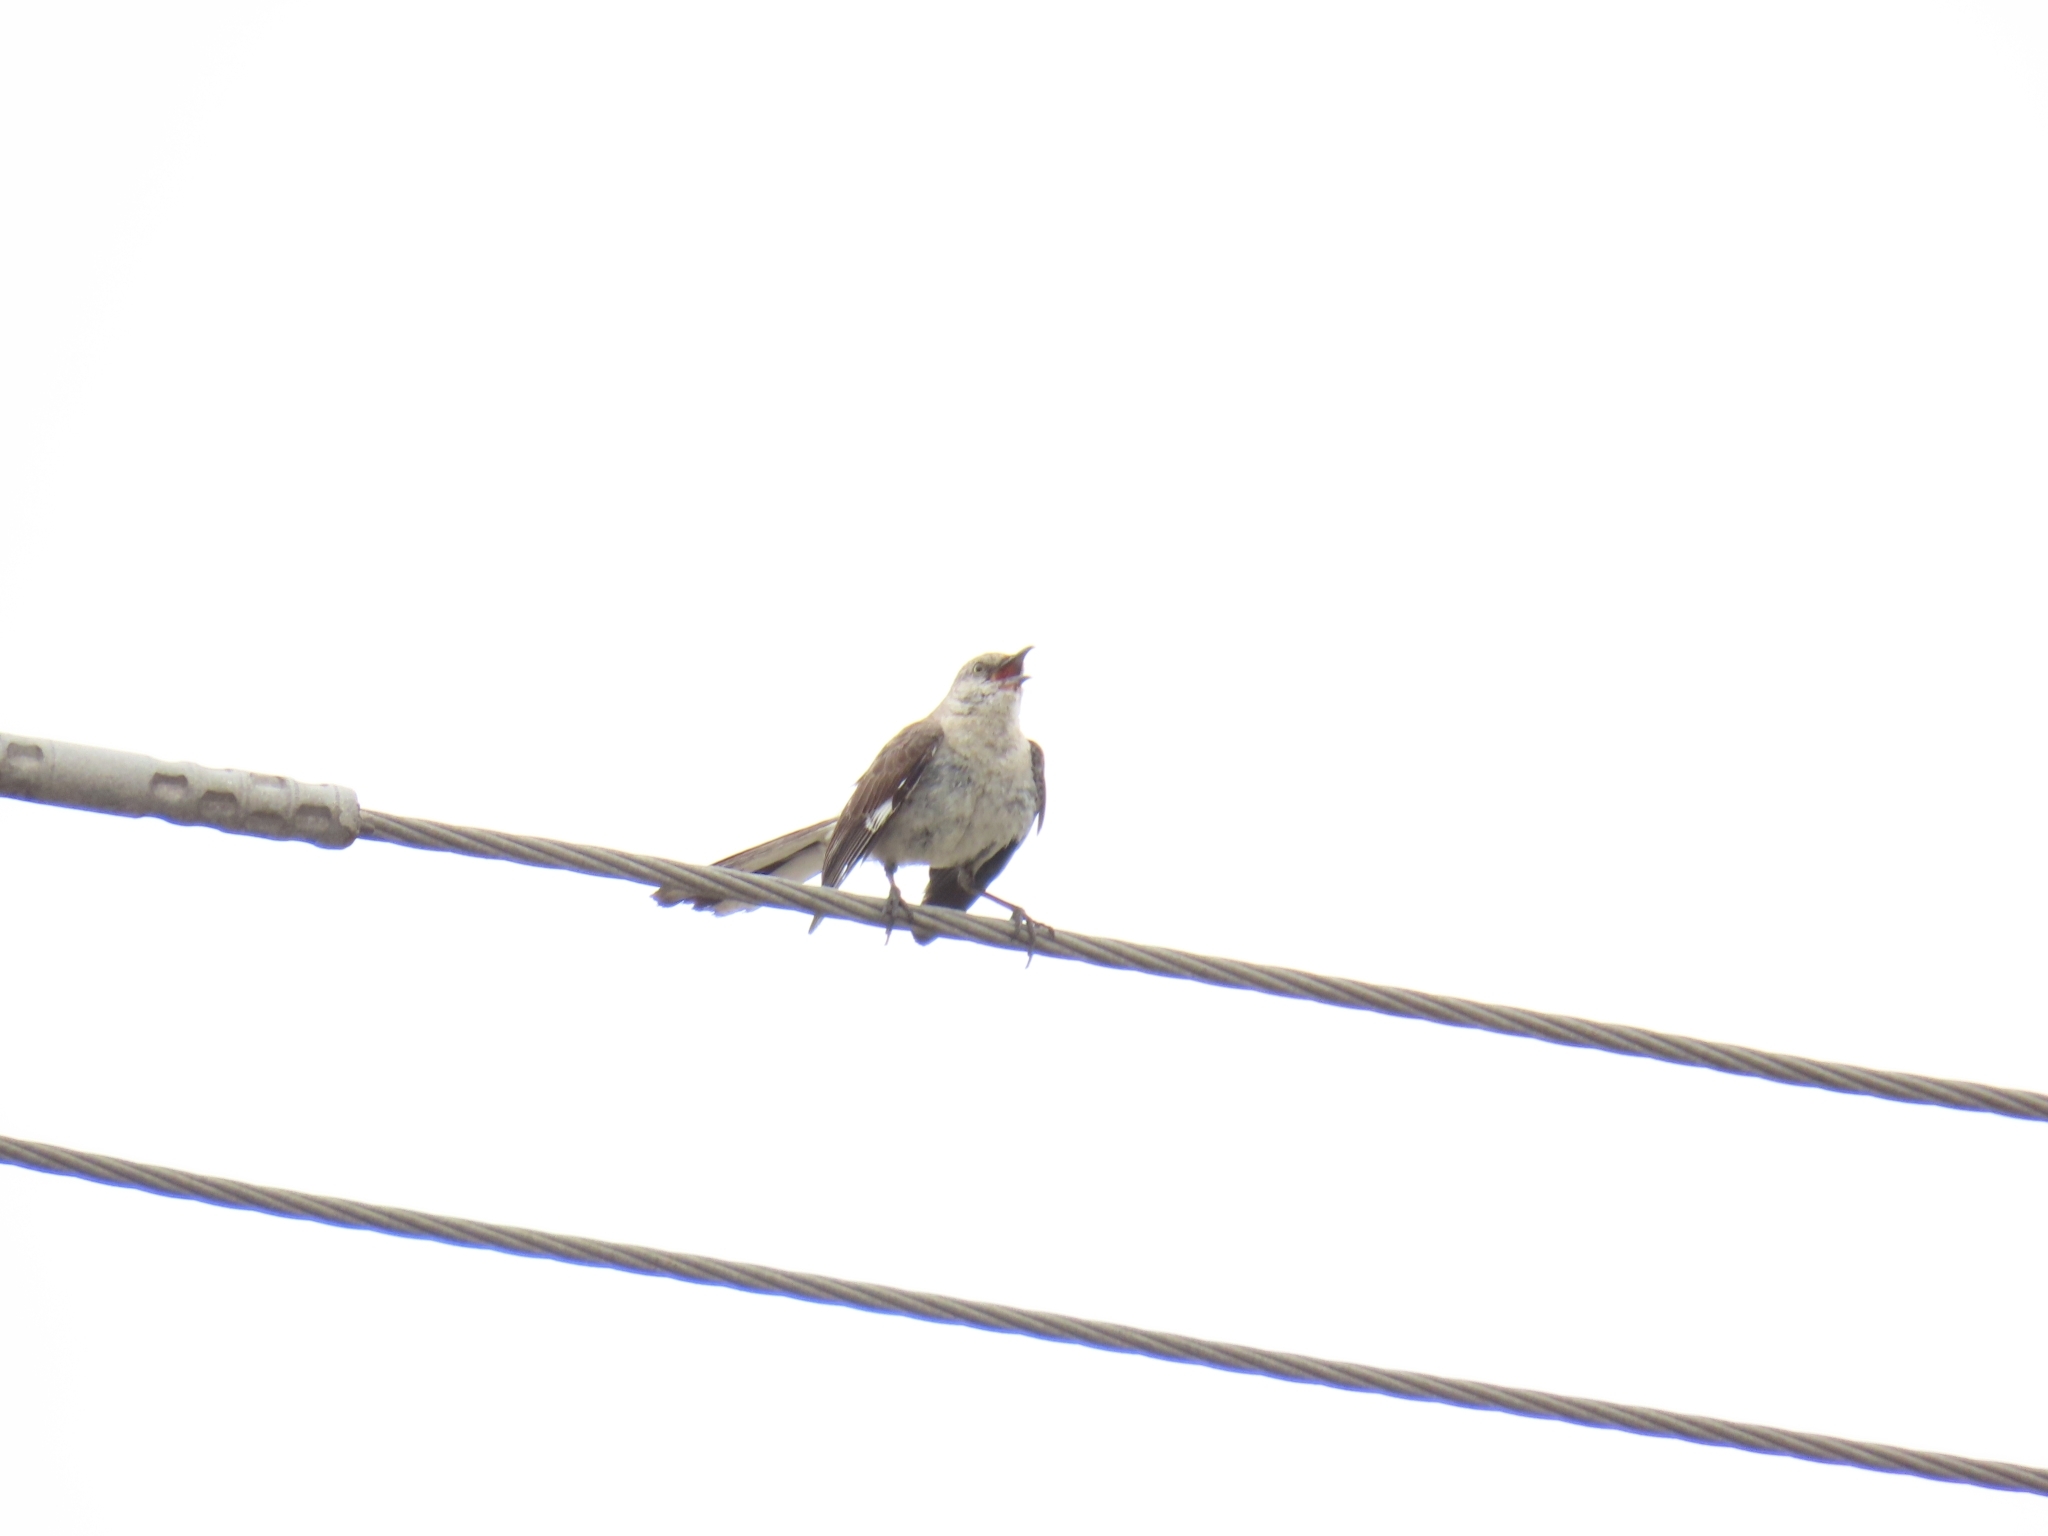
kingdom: Animalia
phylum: Chordata
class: Aves
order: Passeriformes
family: Mimidae
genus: Mimus
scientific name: Mimus polyglottos
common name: Northern mockingbird
